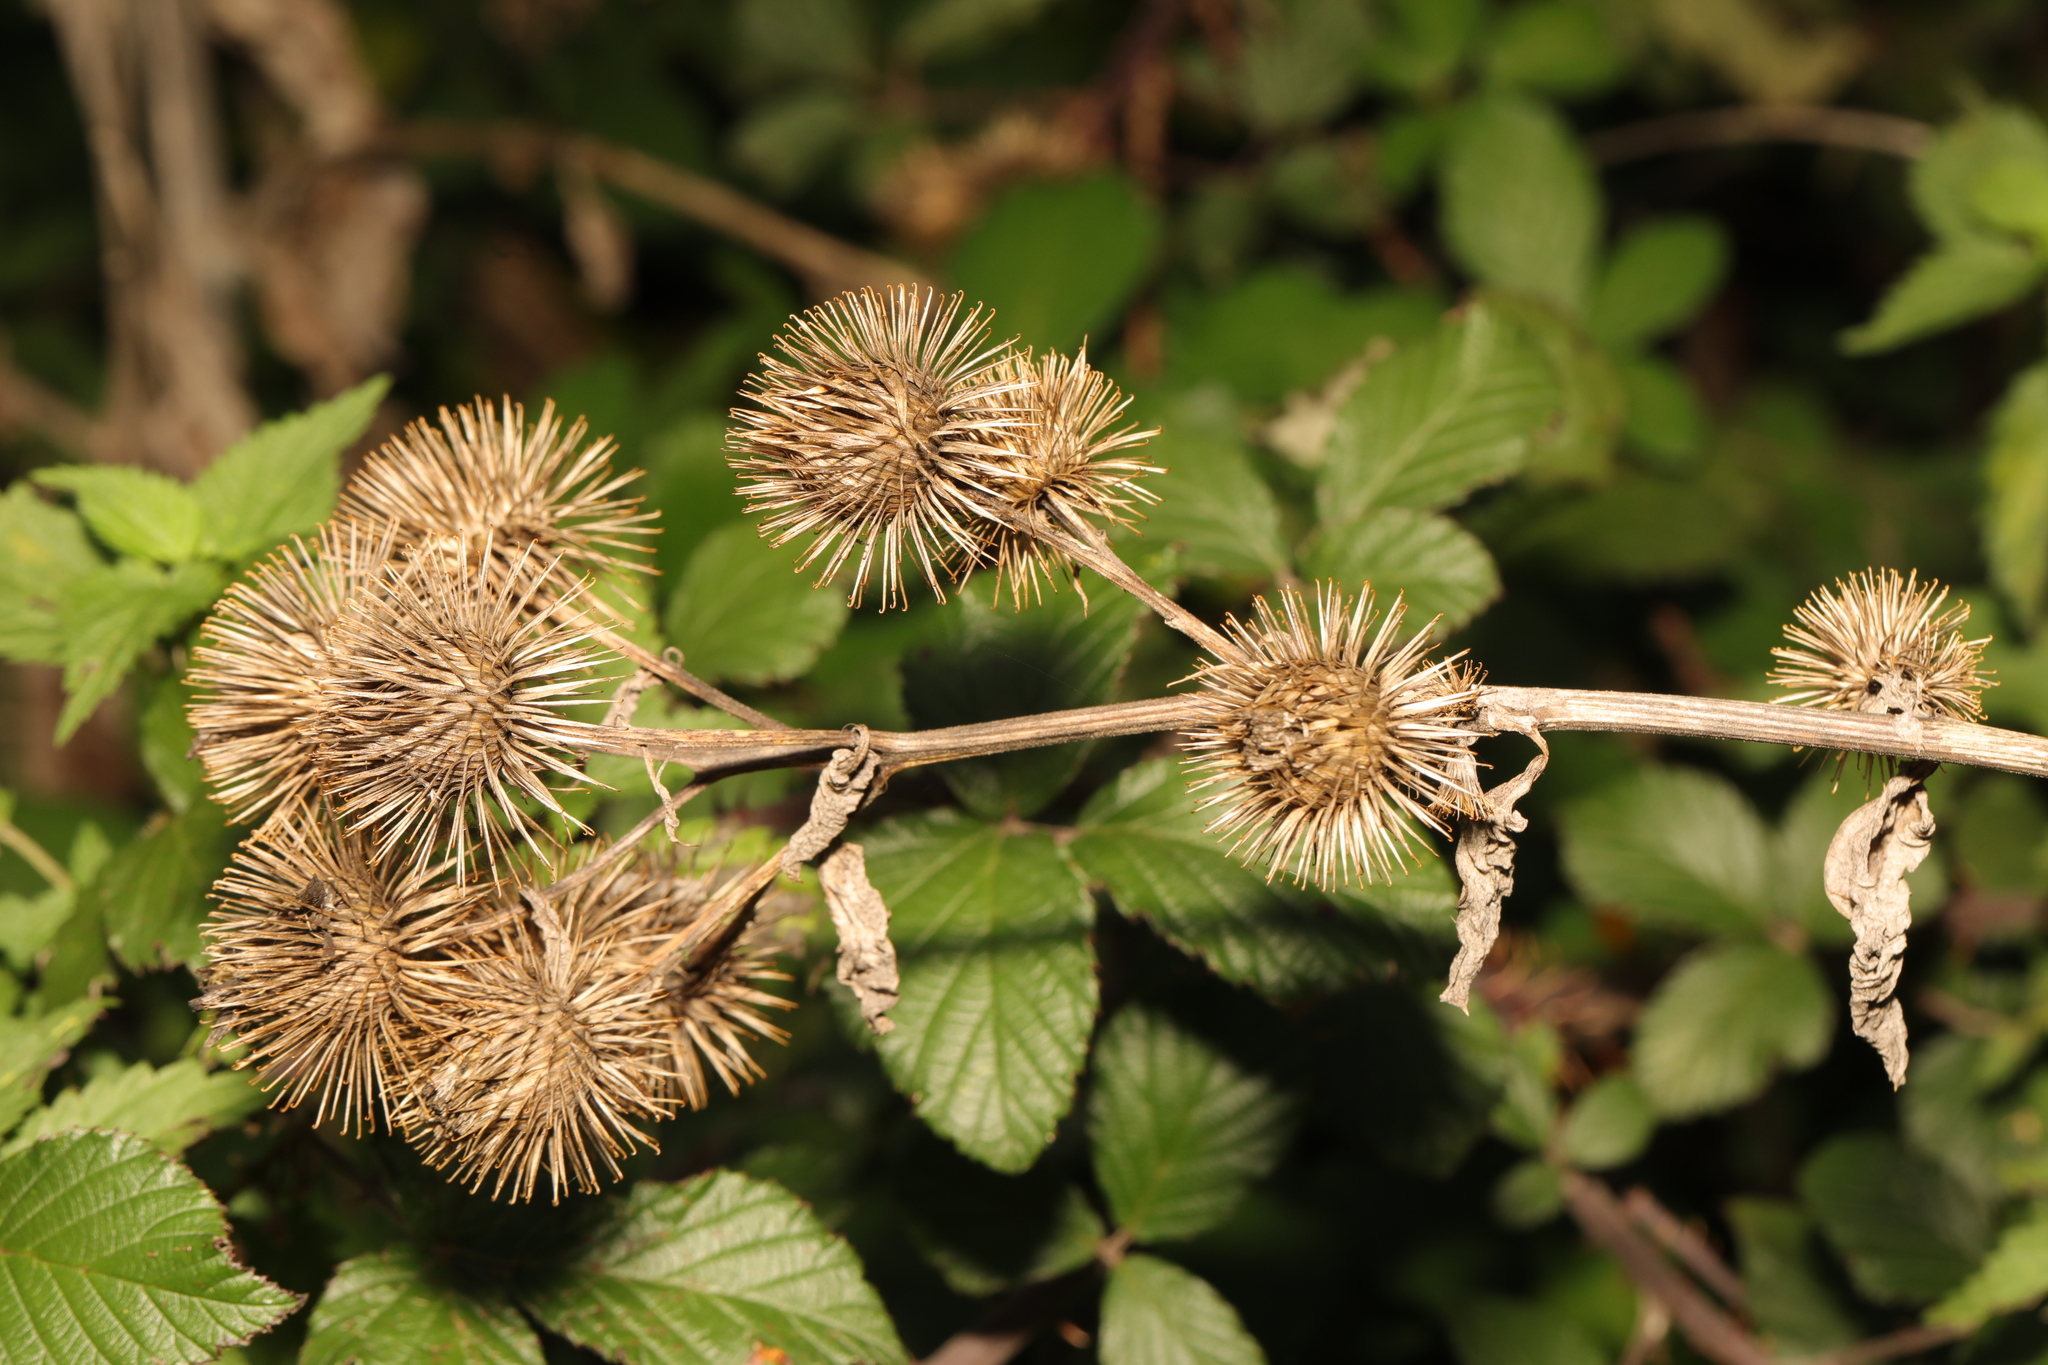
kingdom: Plantae
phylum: Tracheophyta
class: Magnoliopsida
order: Asterales
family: Asteraceae
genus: Arctium
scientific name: Arctium minus
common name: Lesser burdock
